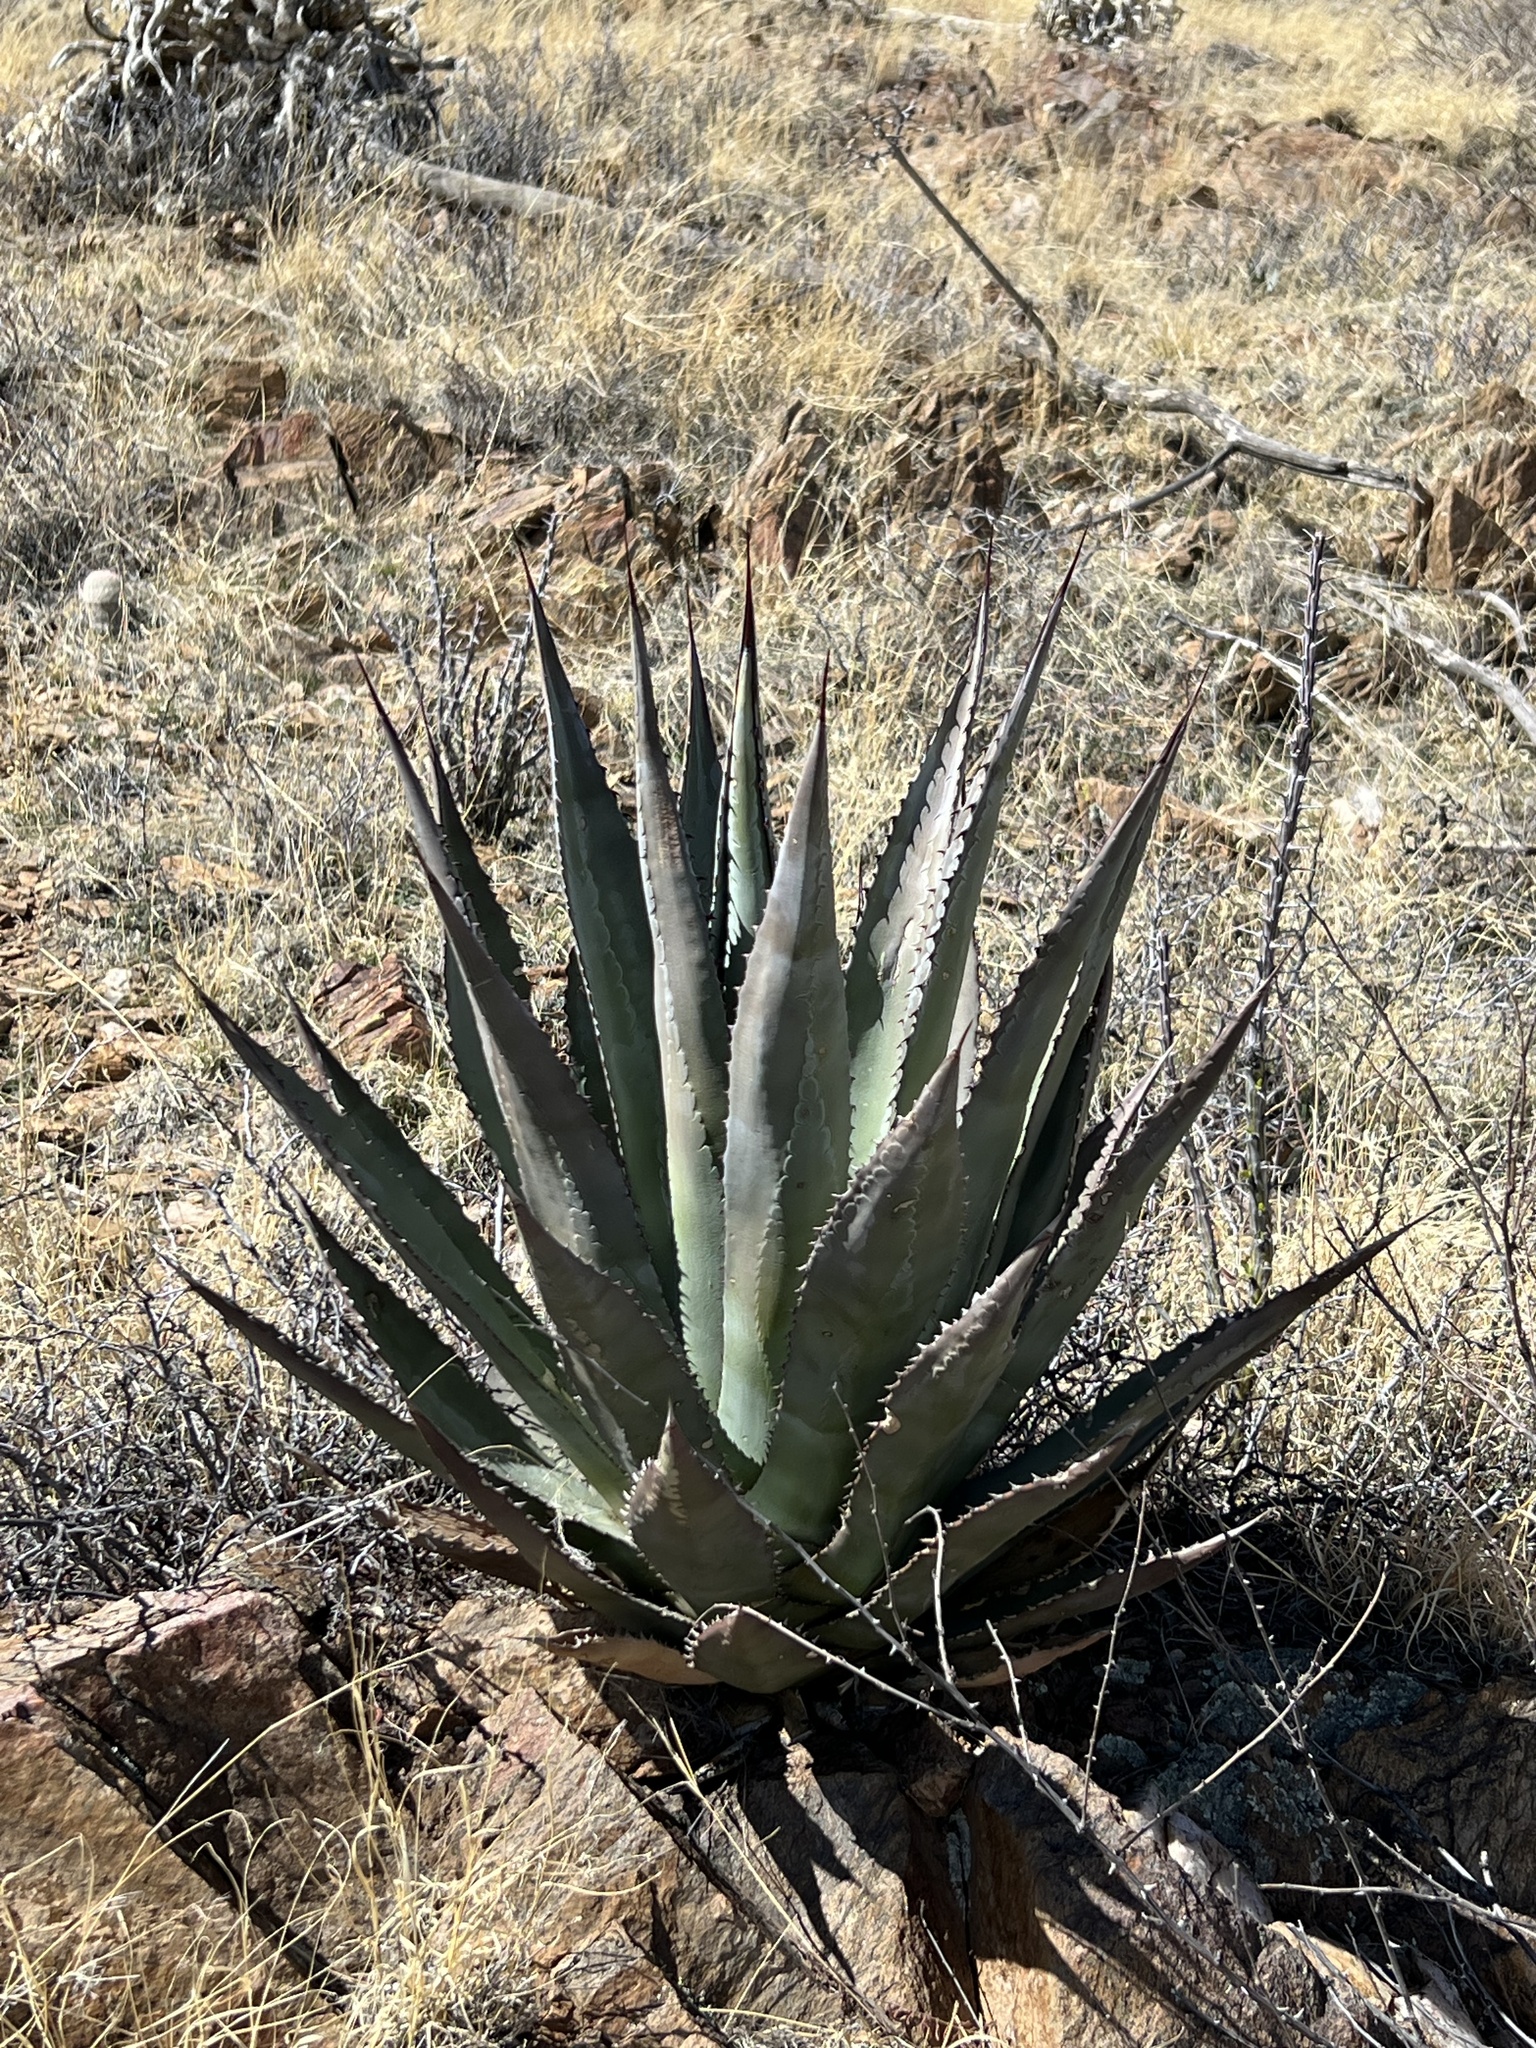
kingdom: Plantae
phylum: Tracheophyta
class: Liliopsida
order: Asparagales
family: Asparagaceae
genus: Agave
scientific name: Agave palmeri
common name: Palmer agave
